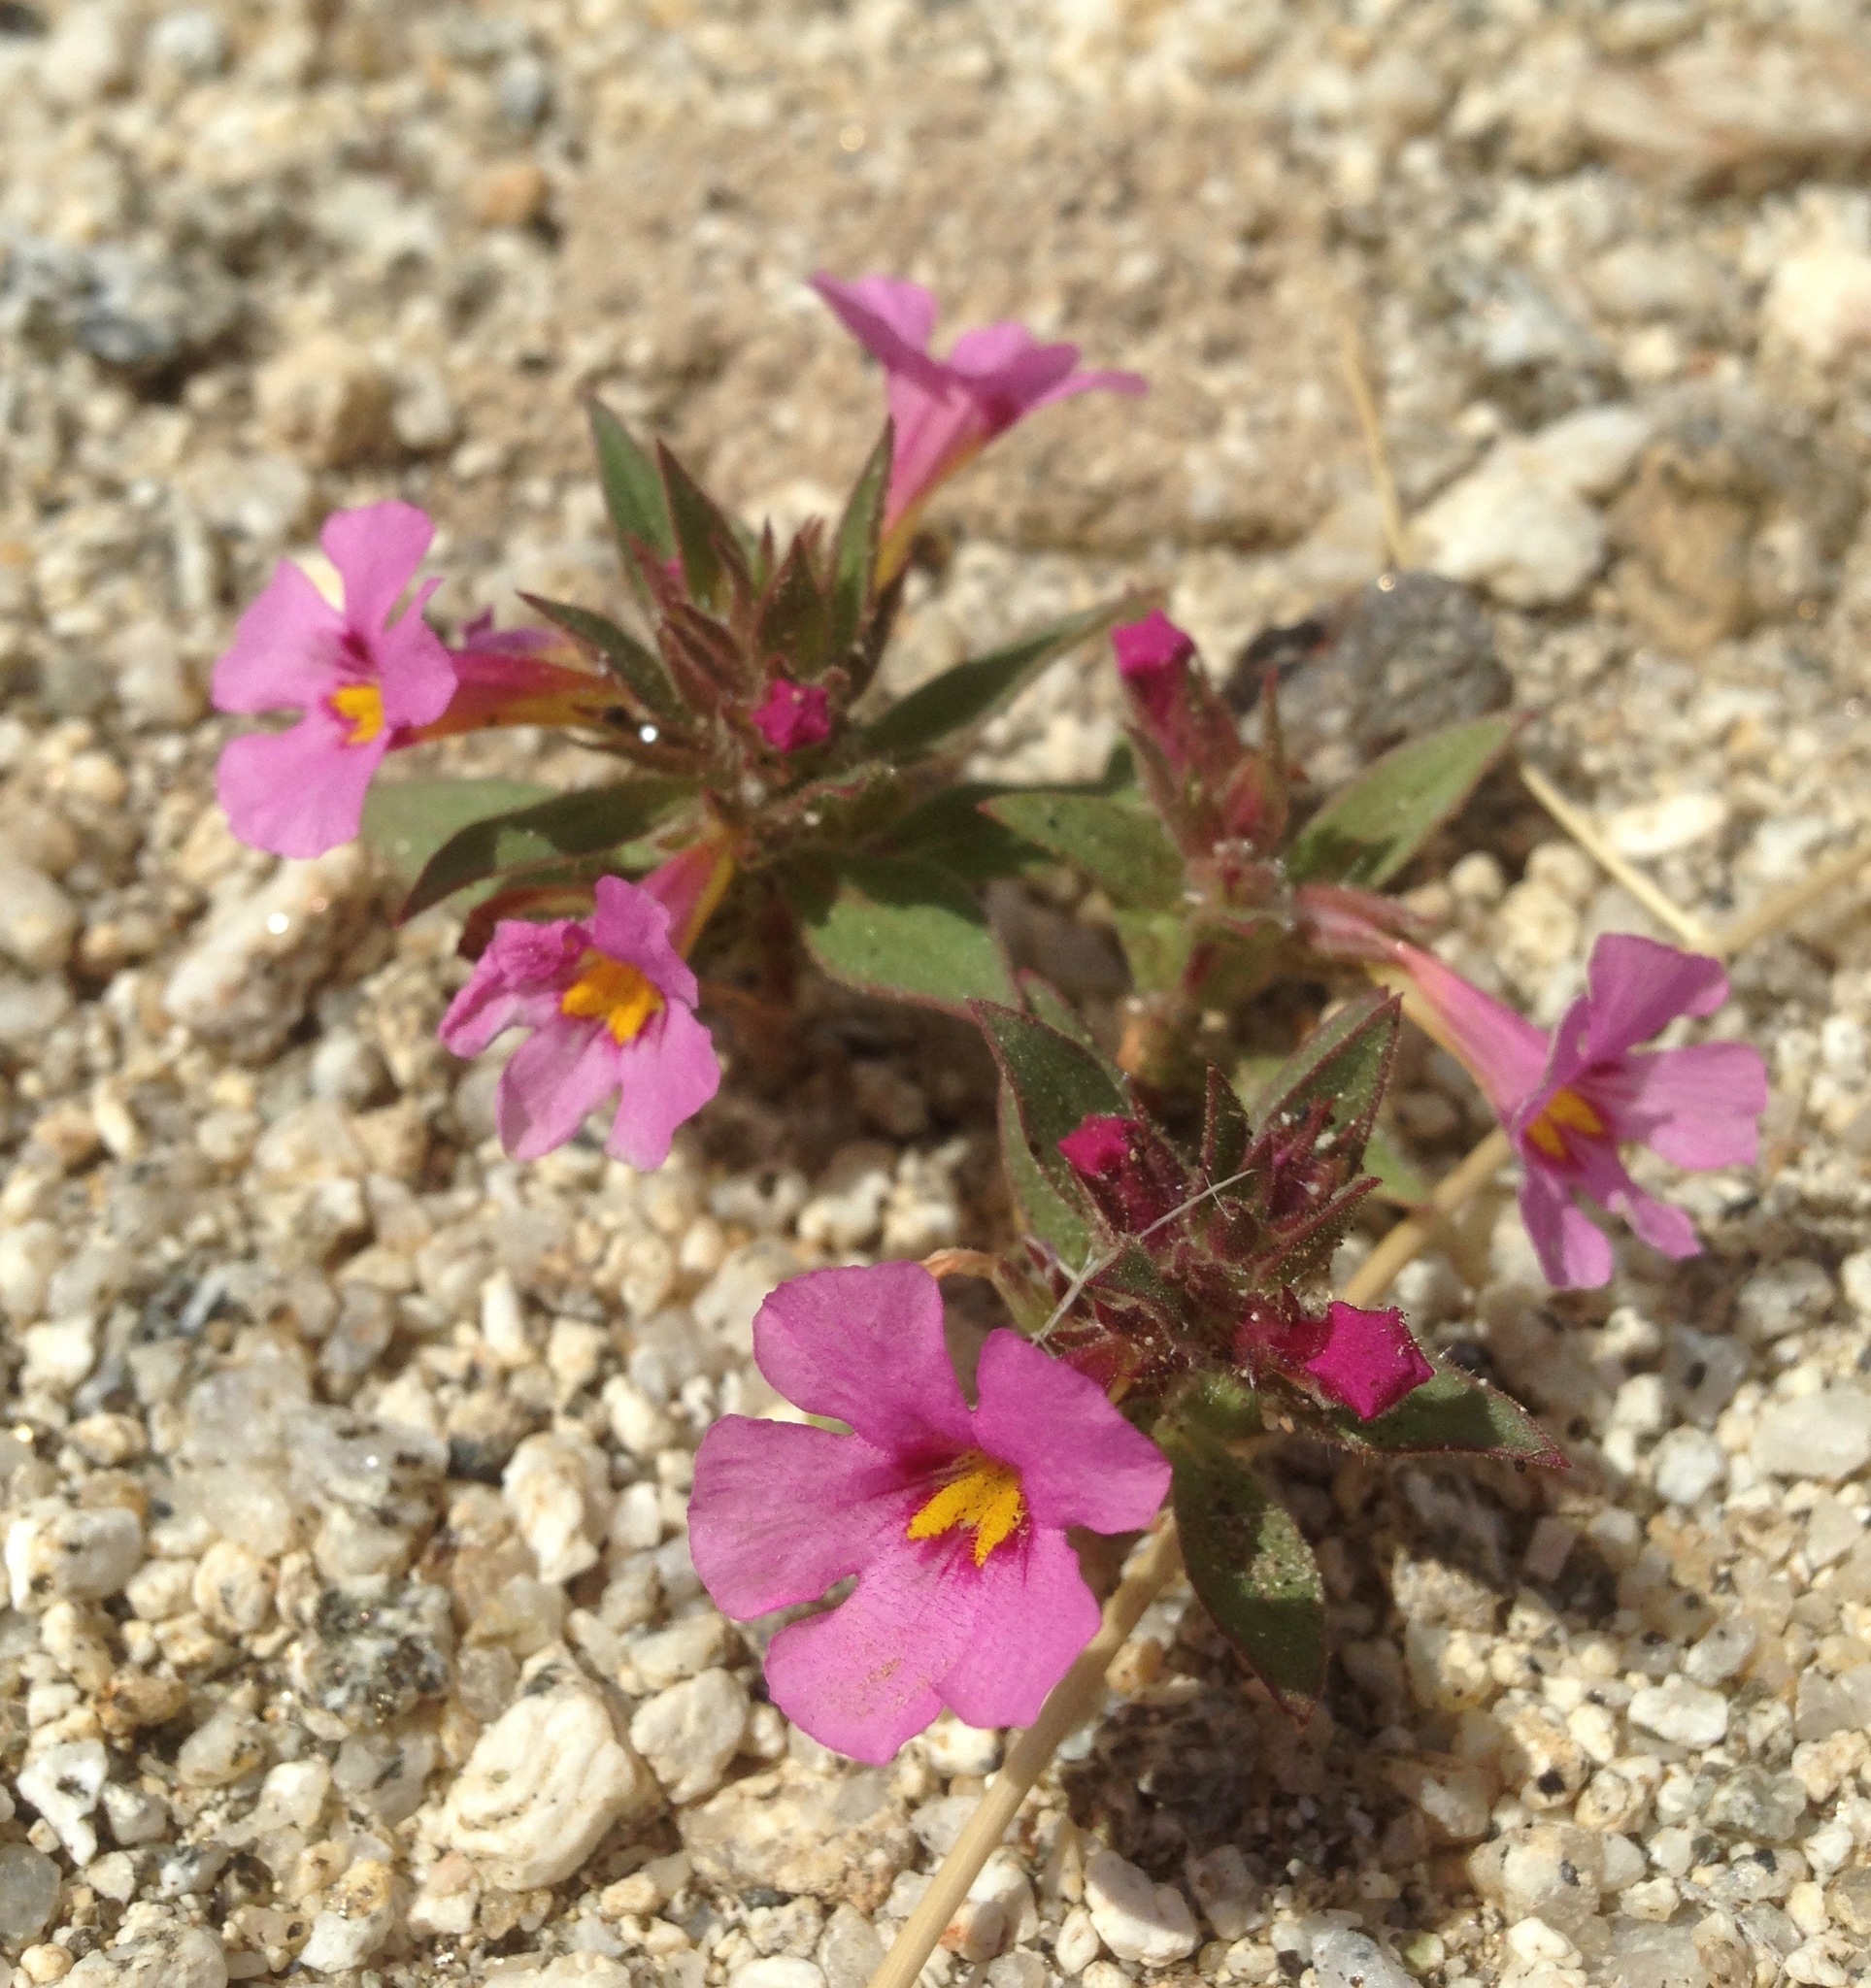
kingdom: Plantae
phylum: Tracheophyta
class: Magnoliopsida
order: Lamiales
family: Phrymaceae
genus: Diplacus
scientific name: Diplacus bigelovii
